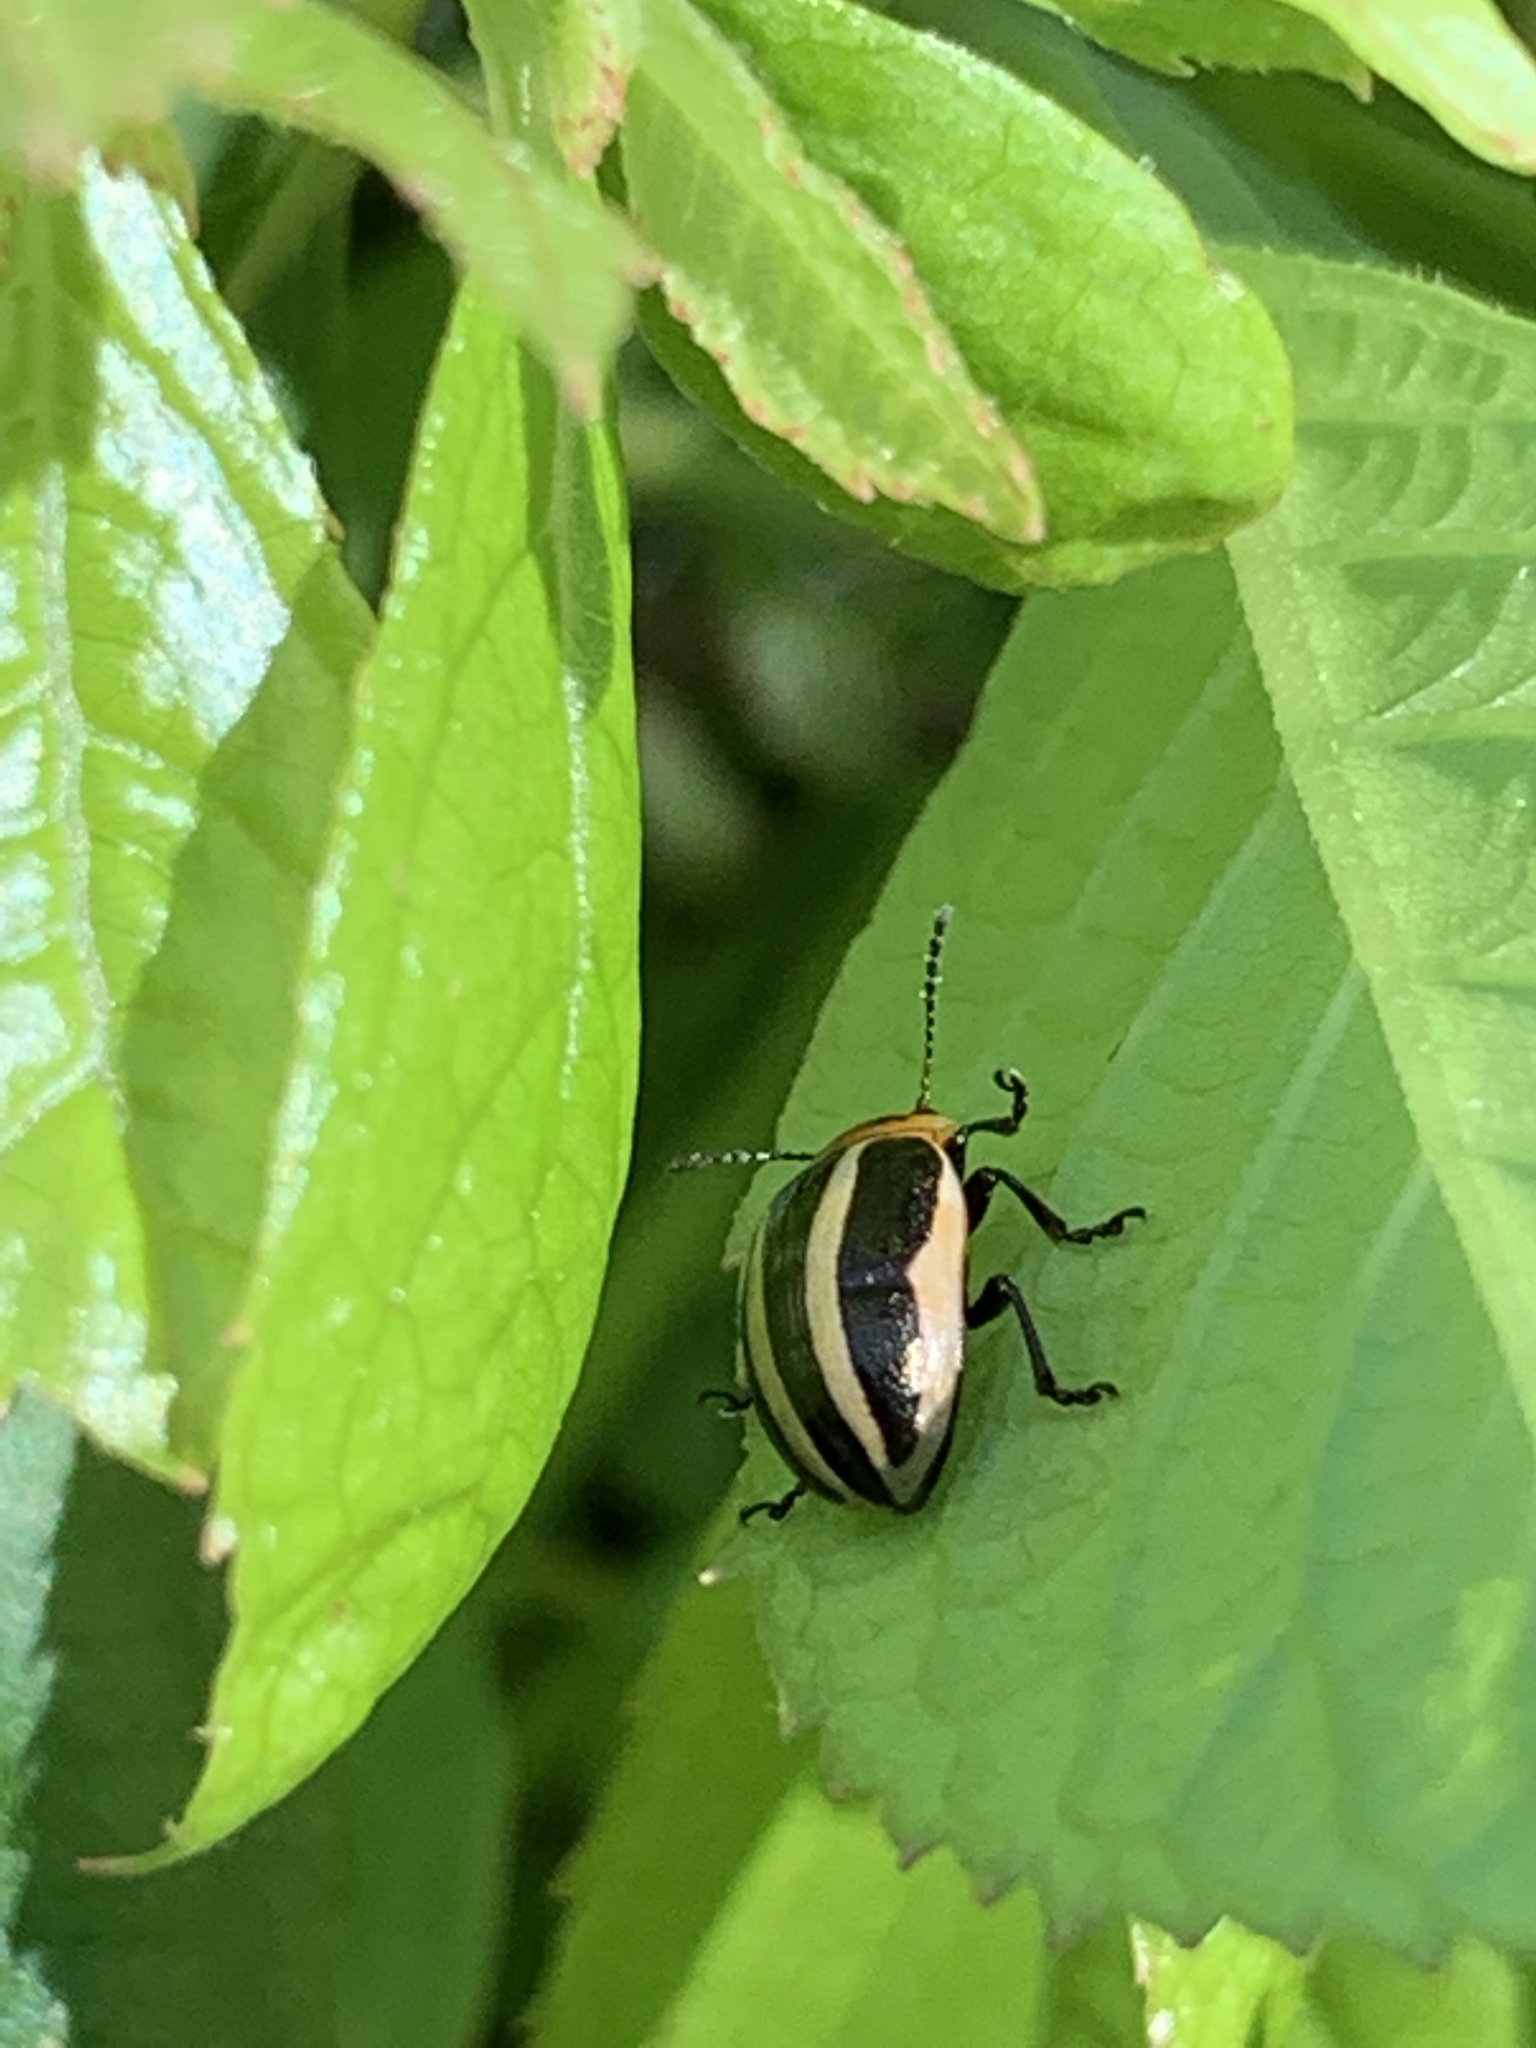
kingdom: Animalia
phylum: Arthropoda
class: Insecta
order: Coleoptera
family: Chrysomelidae
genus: Calligrapha
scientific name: Calligrapha californica
